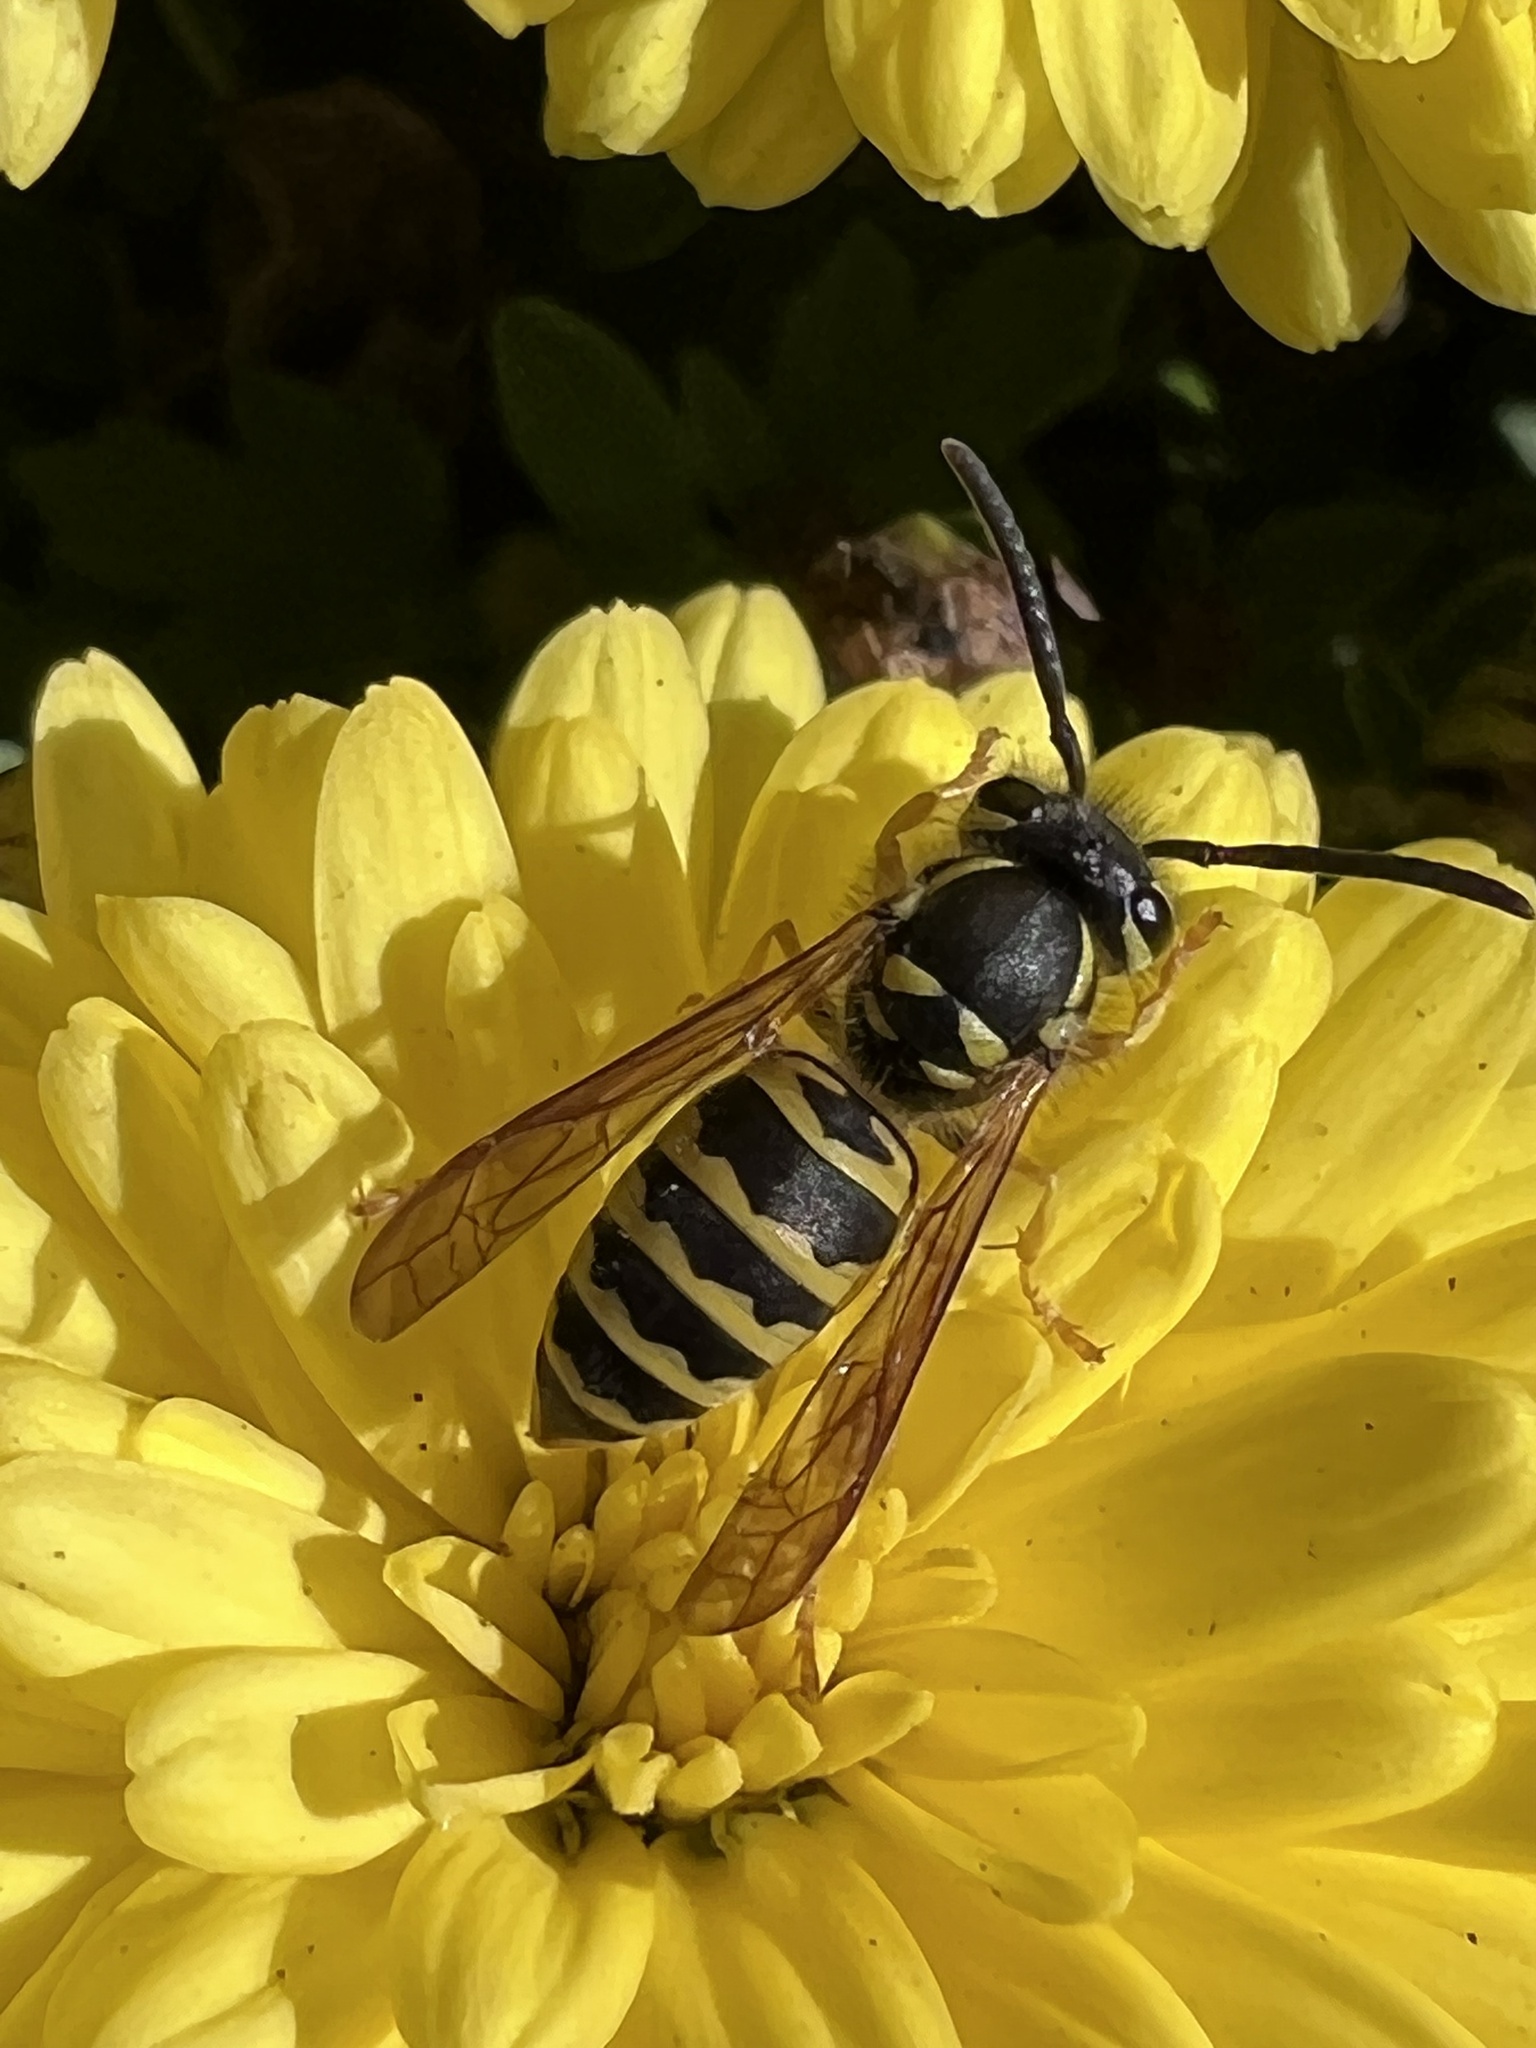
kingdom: Animalia
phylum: Arthropoda
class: Insecta
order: Hymenoptera
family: Vespidae
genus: Vespula
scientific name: Vespula maculifrons
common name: Eastern yellowjacket
